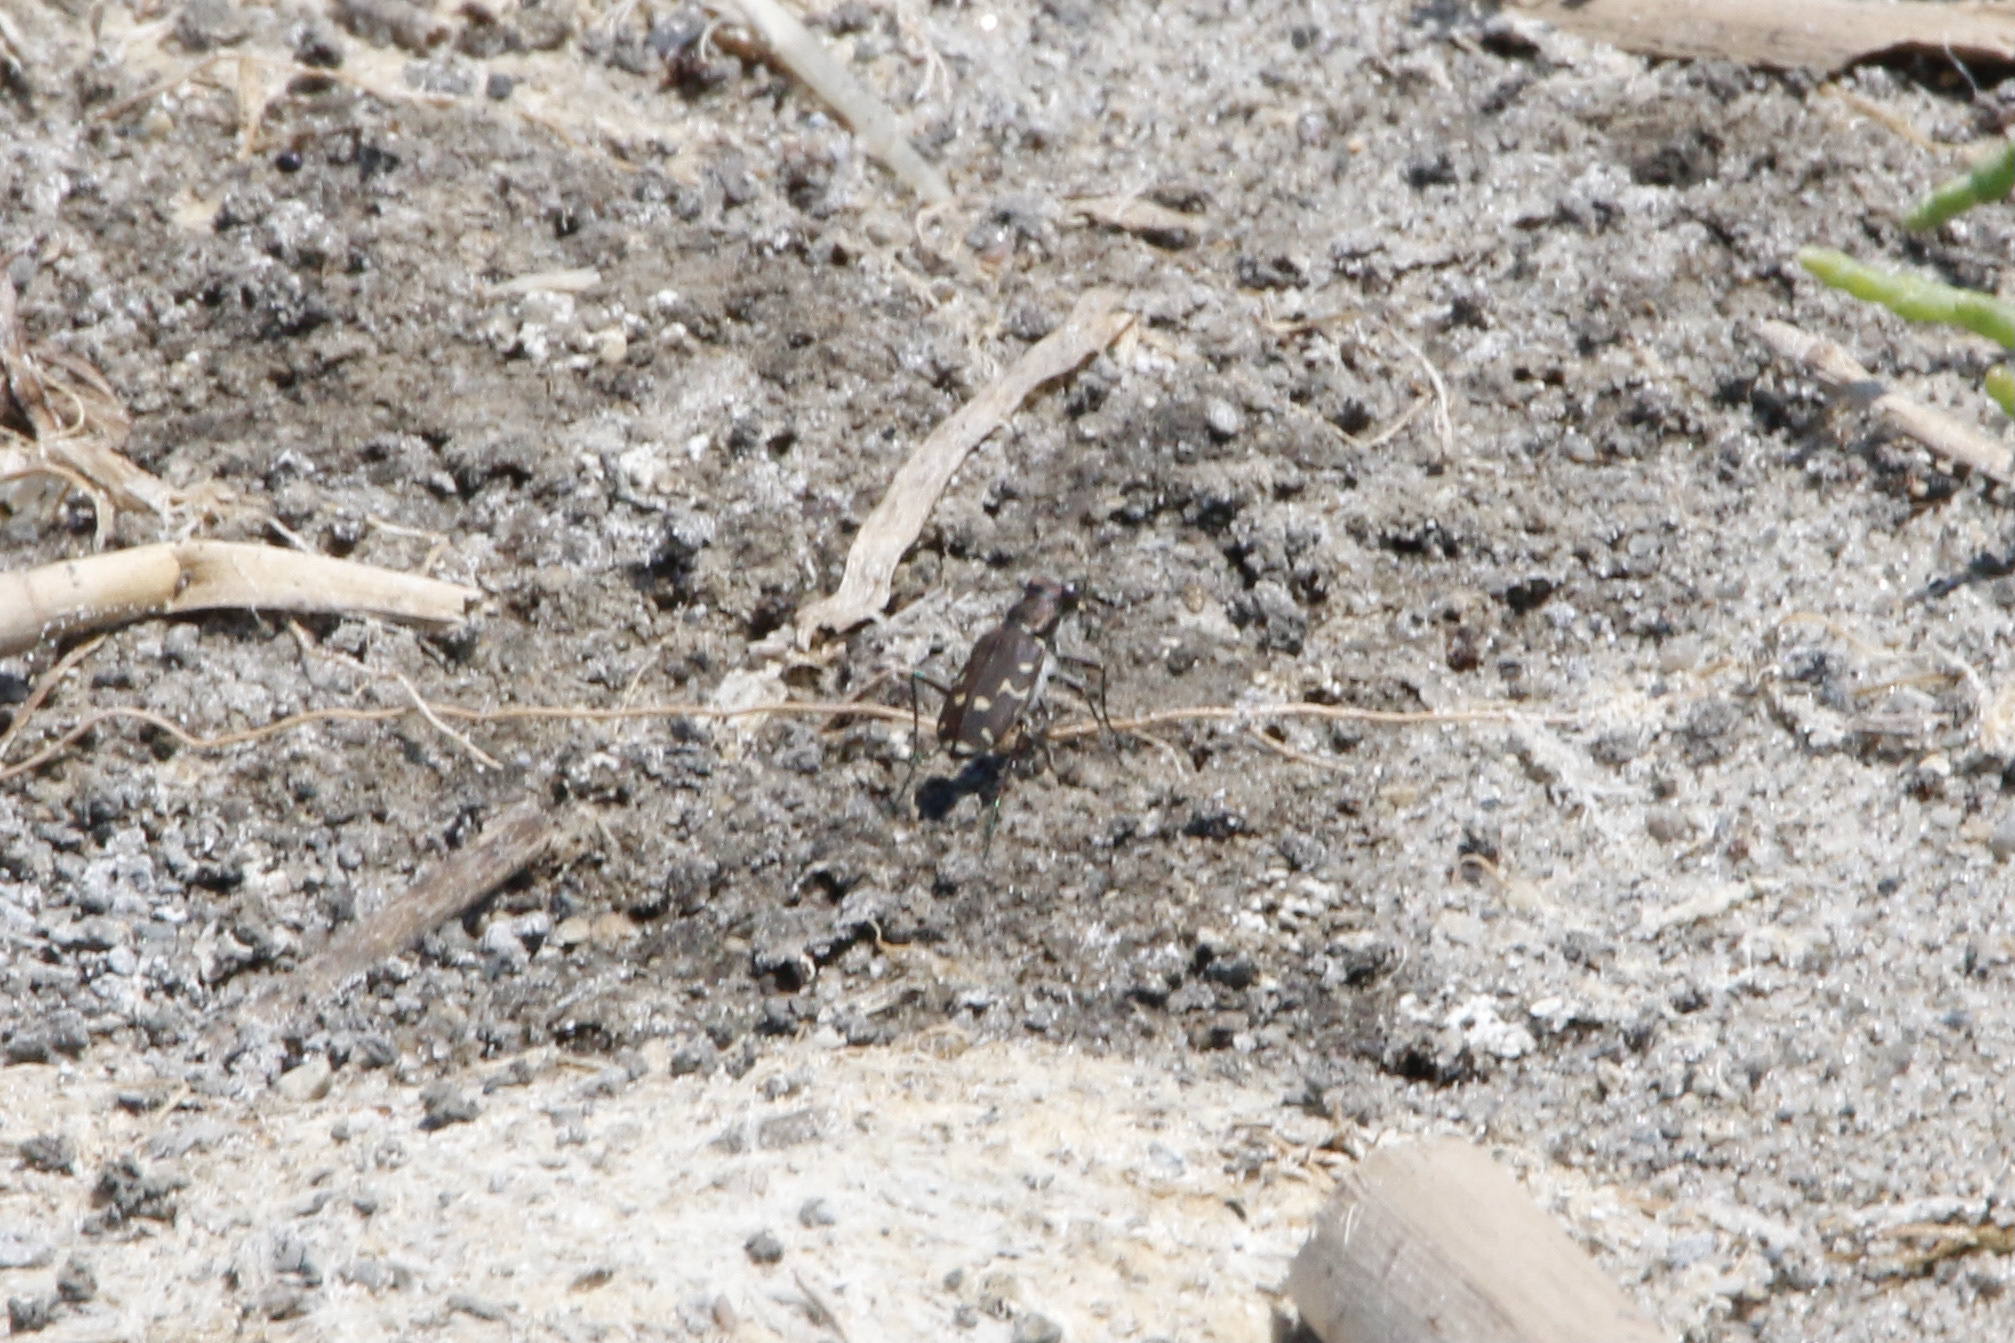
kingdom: Animalia
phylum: Arthropoda
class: Insecta
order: Coleoptera
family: Carabidae
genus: Cicindela
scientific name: Cicindela duodecimguttata
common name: Twelve-spotted tiger beetle
